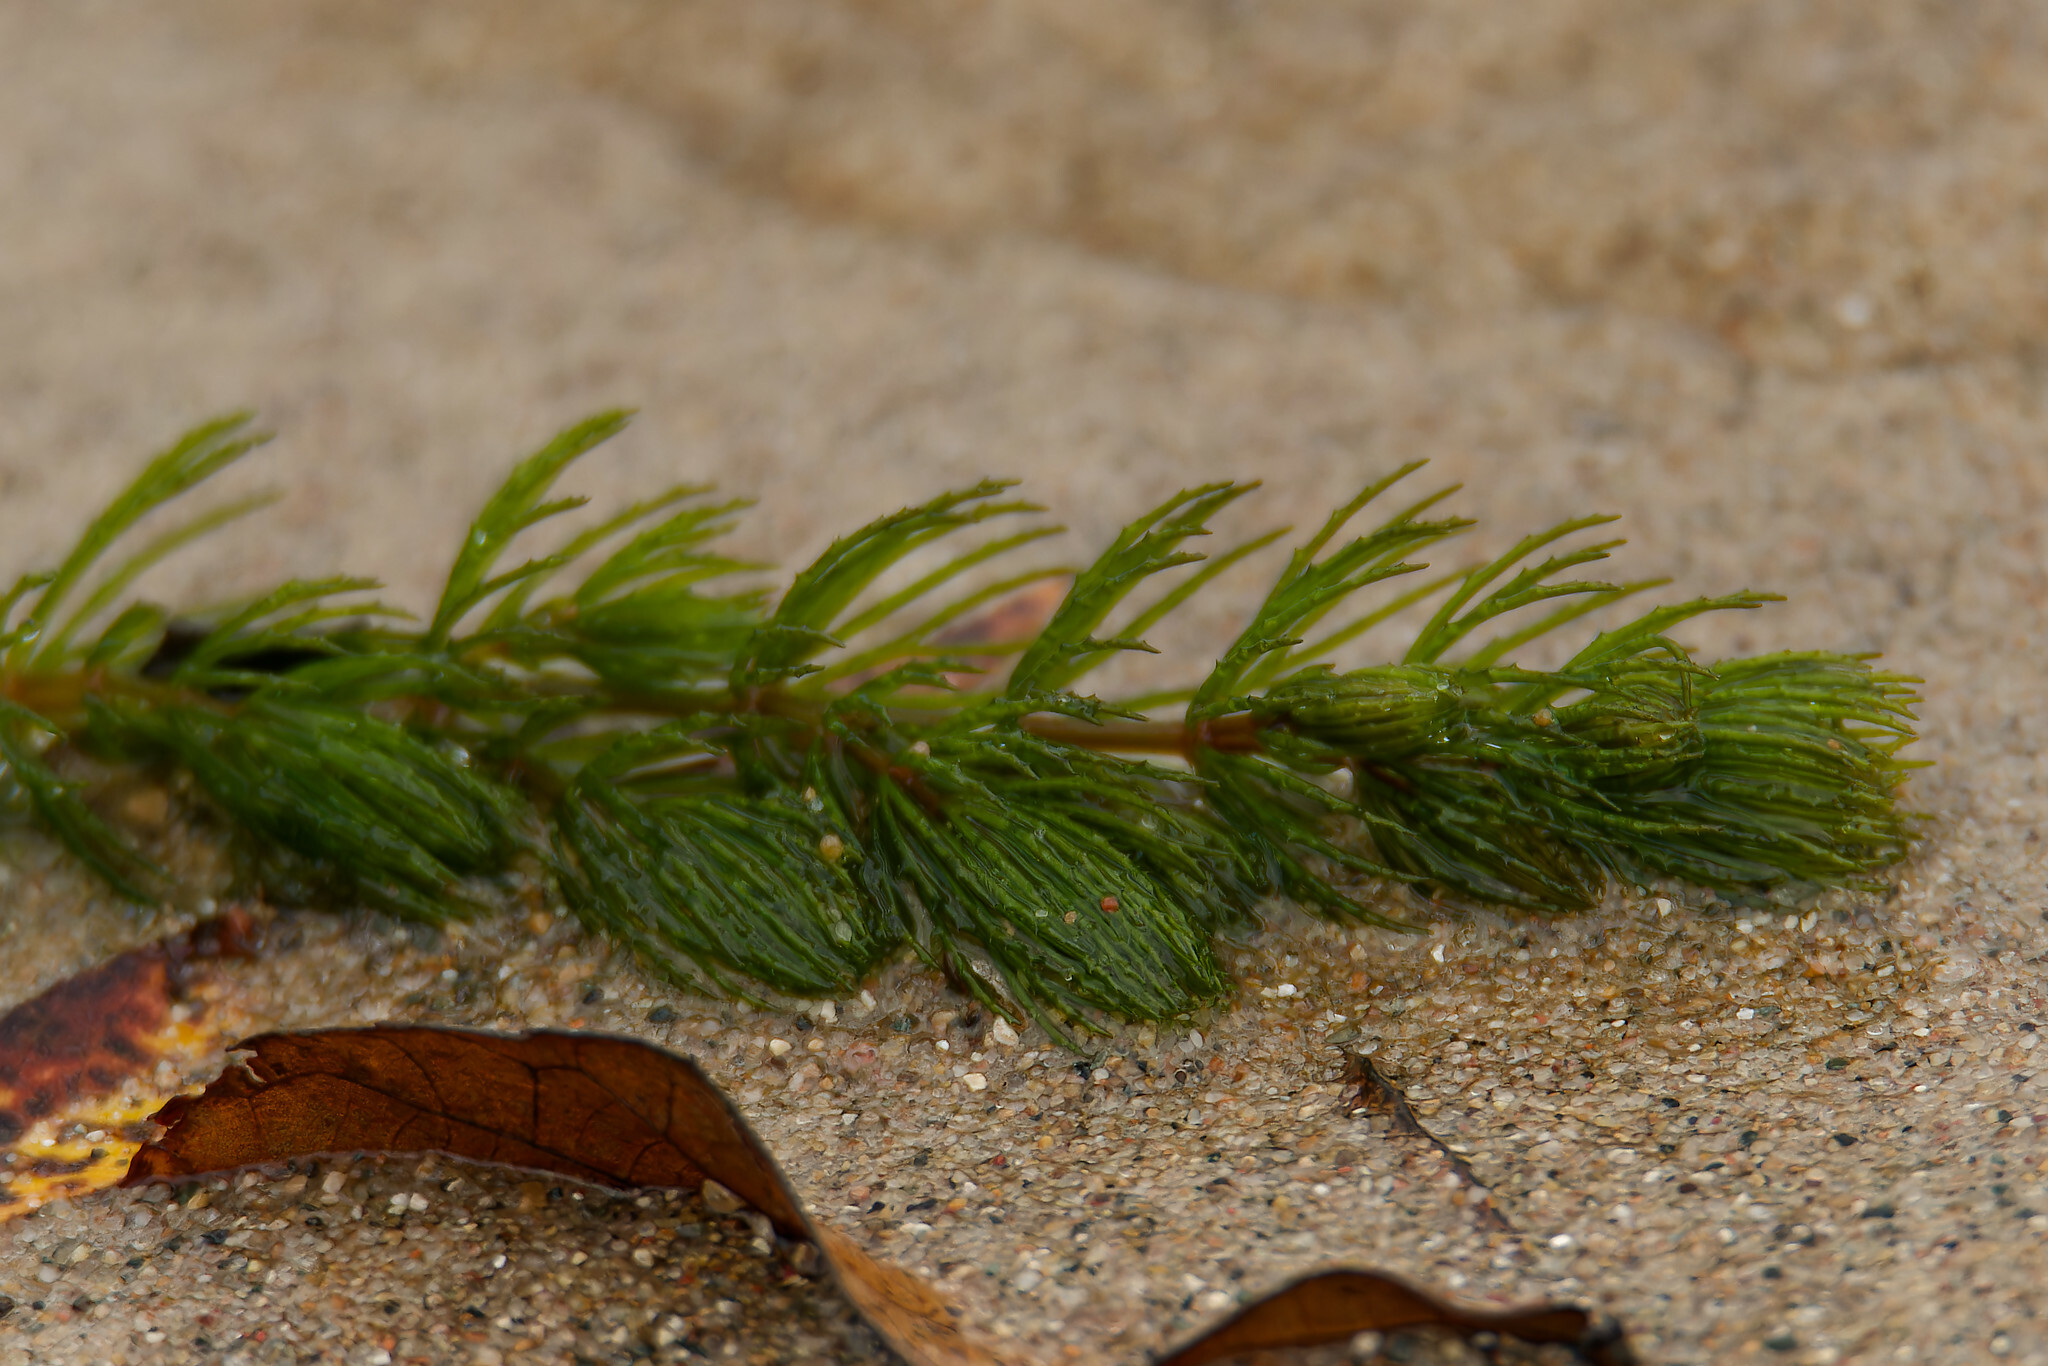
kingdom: Plantae
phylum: Tracheophyta
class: Magnoliopsida
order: Ceratophyllales
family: Ceratophyllaceae
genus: Ceratophyllum
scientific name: Ceratophyllum demersum
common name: Rigid hornwort
